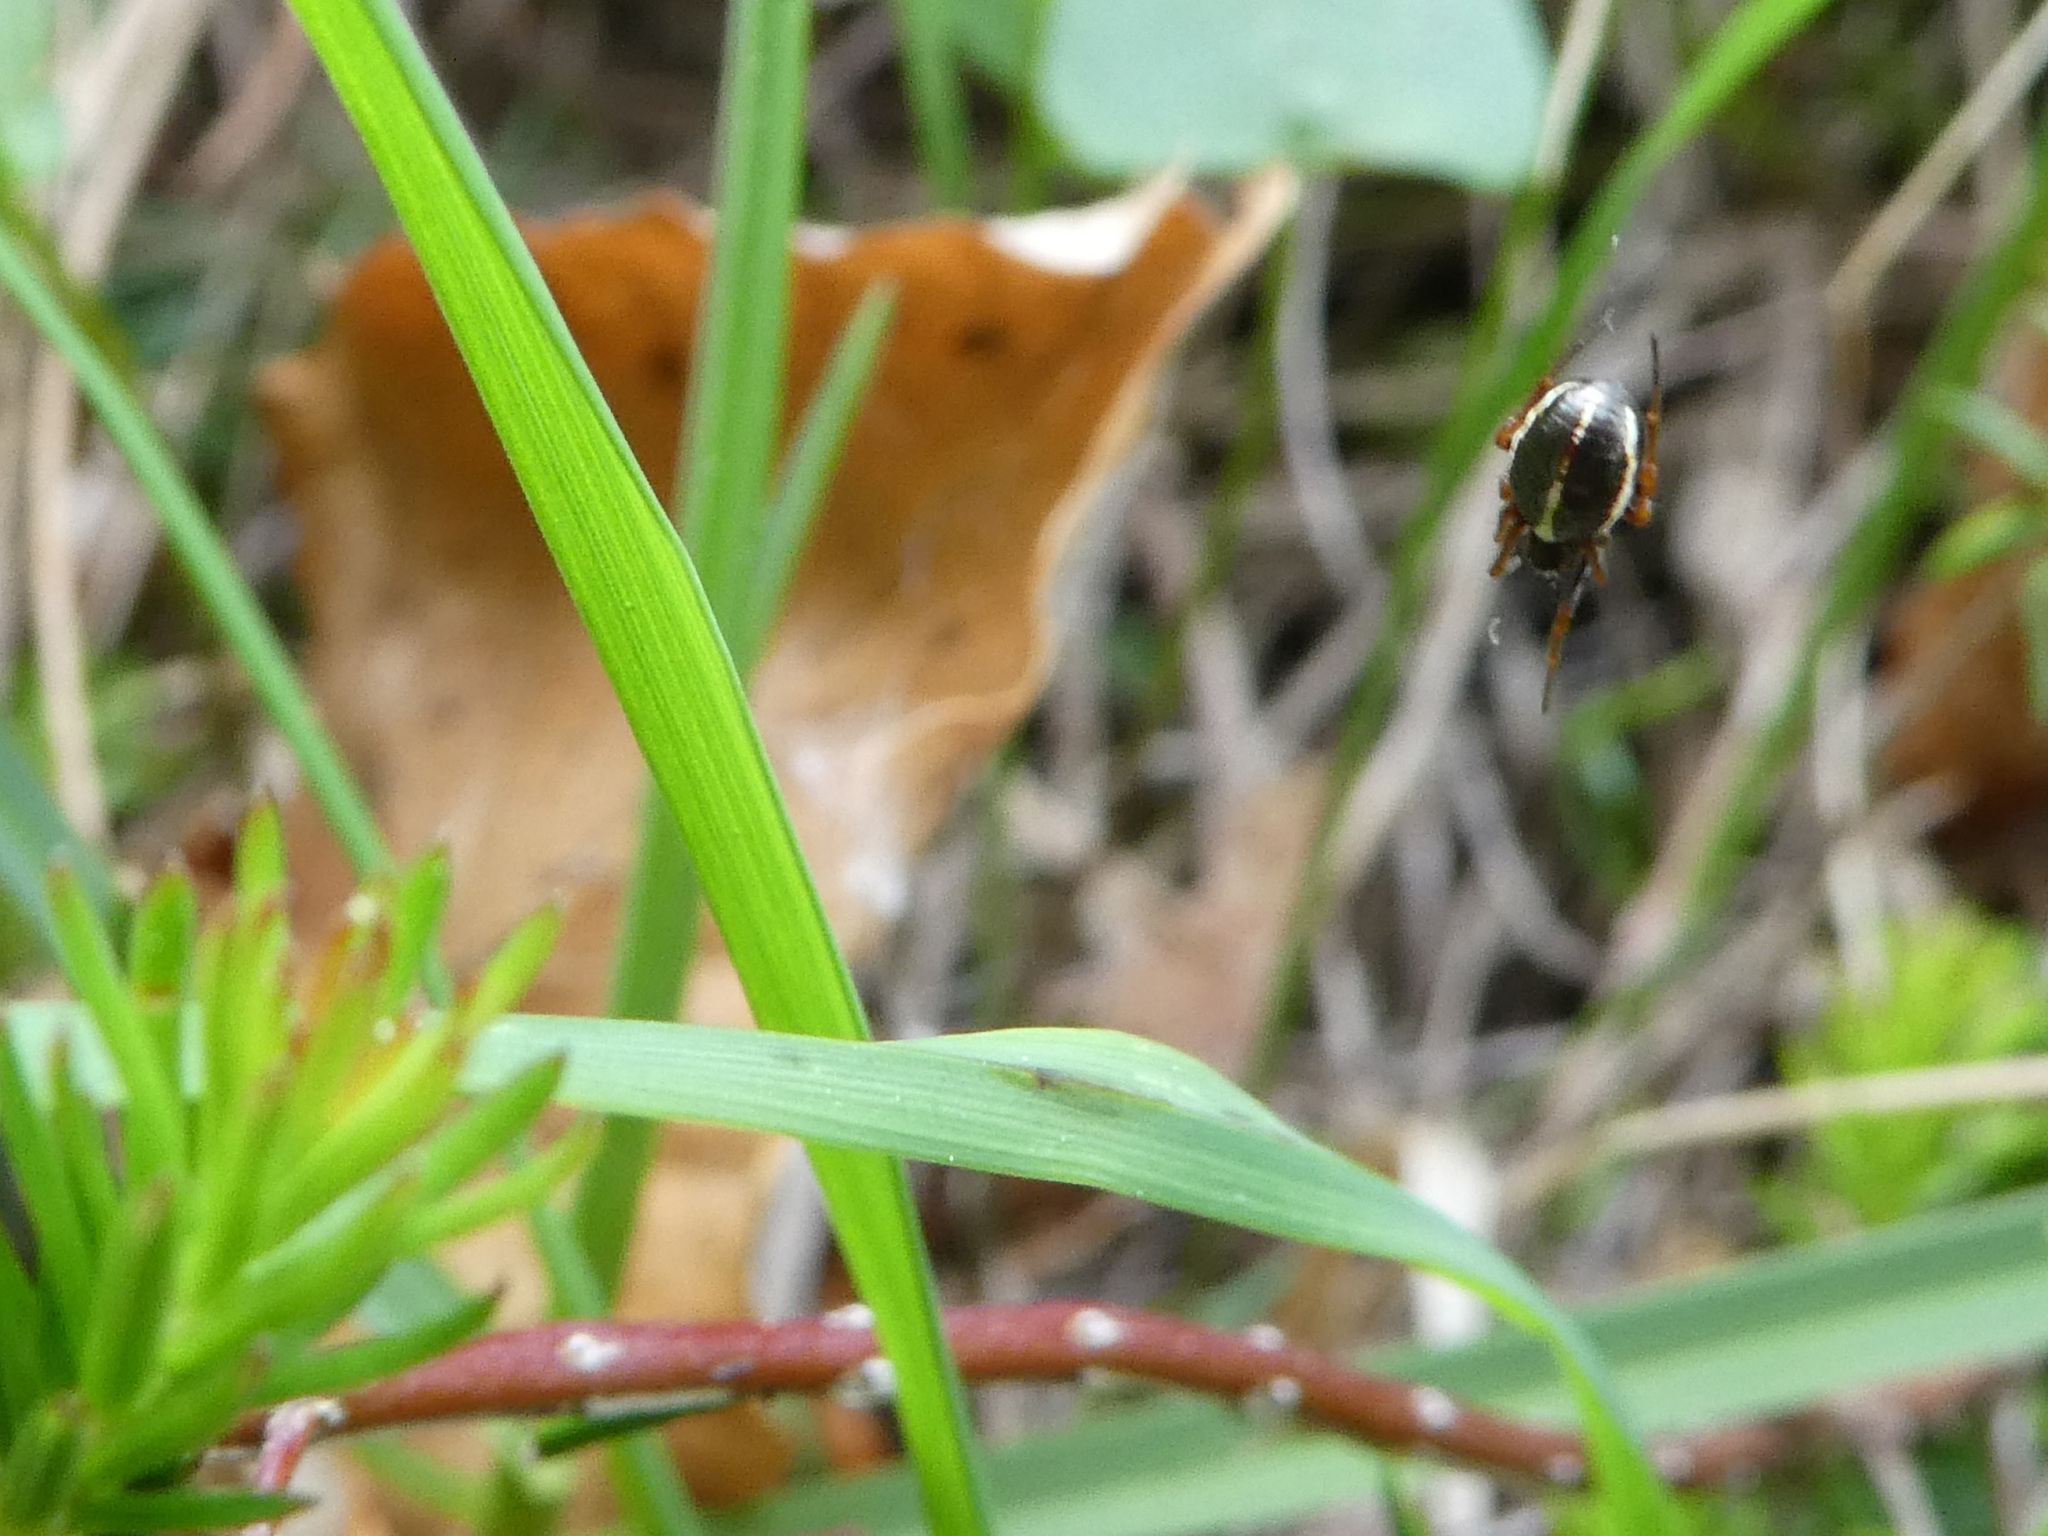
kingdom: Animalia
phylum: Arthropoda
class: Arachnida
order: Araneae
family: Araneidae
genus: Singa
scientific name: Singa nitidula
